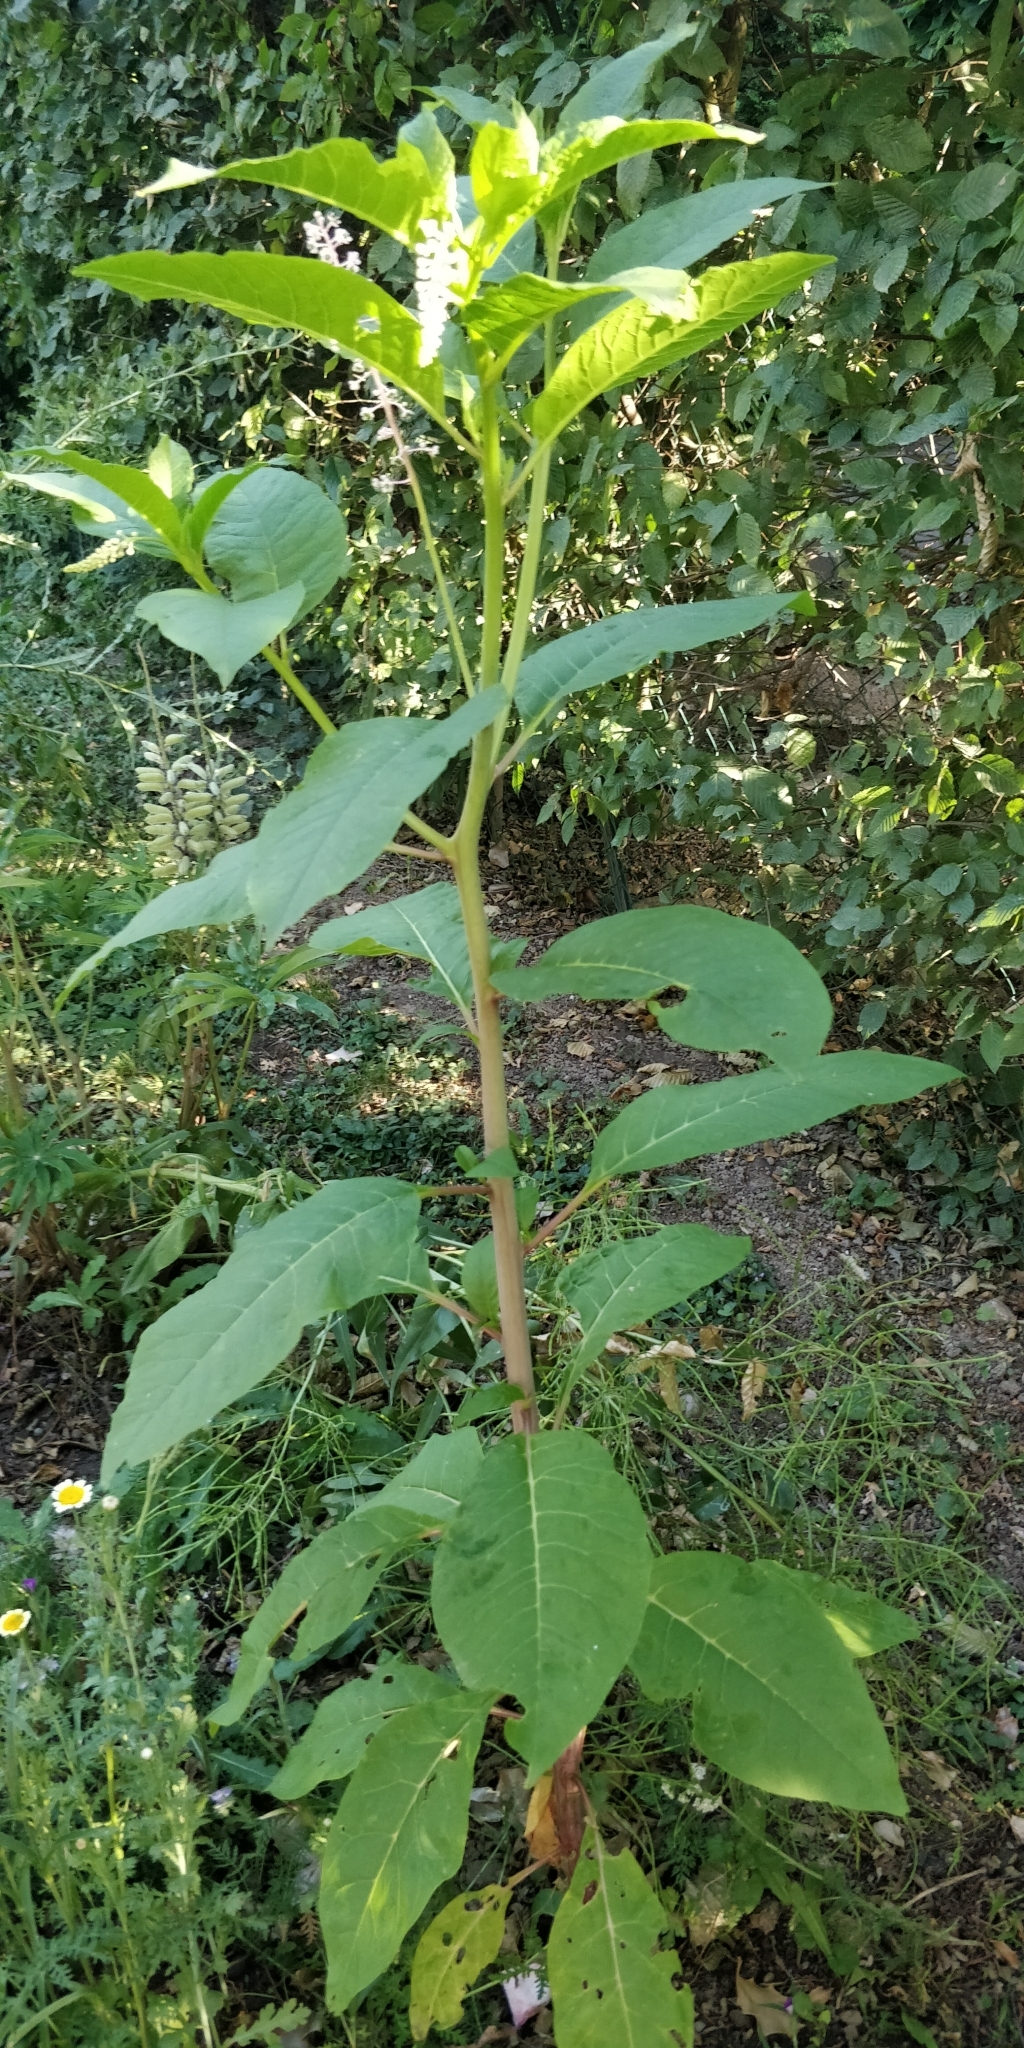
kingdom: Plantae
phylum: Tracheophyta
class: Magnoliopsida
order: Caryophyllales
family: Phytolaccaceae
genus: Phytolacca
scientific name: Phytolacca americana
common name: American pokeweed
